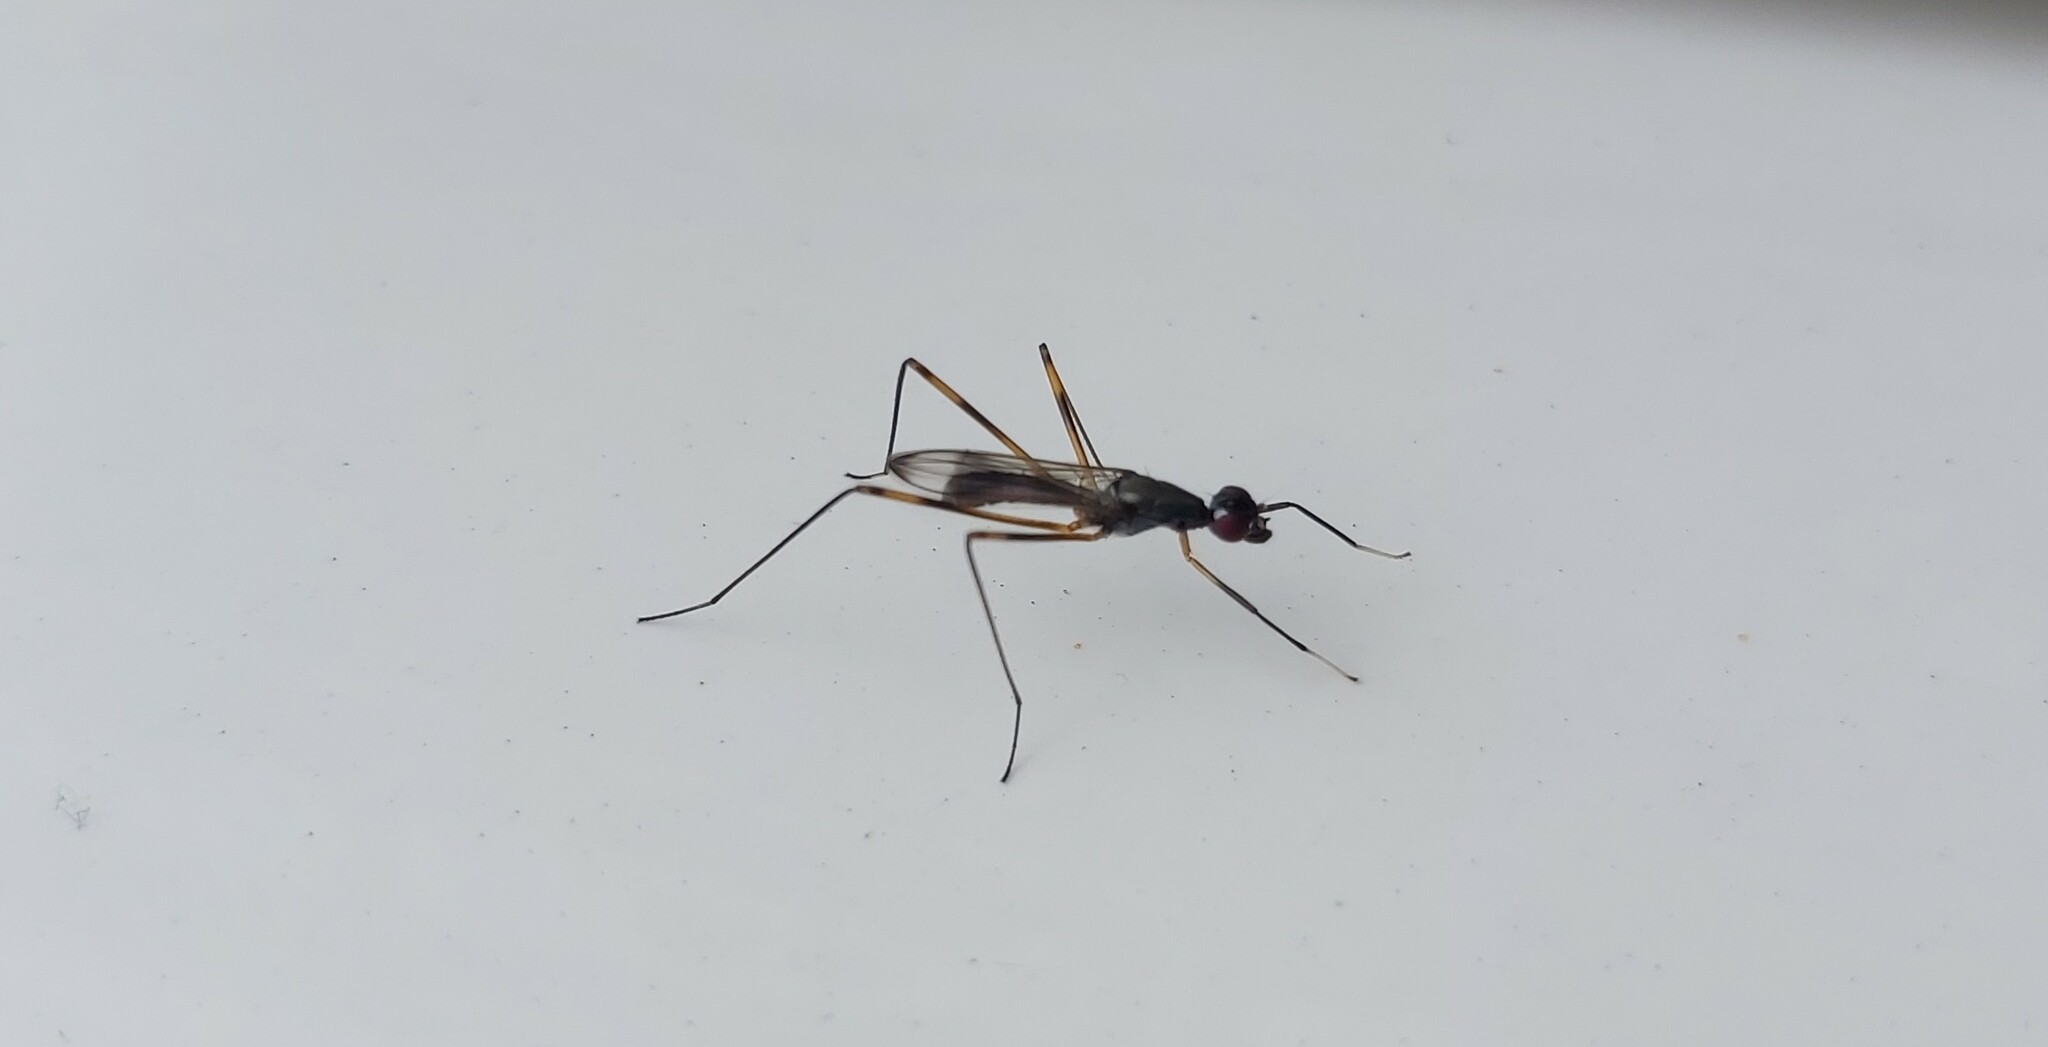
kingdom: Animalia
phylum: Arthropoda
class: Insecta
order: Diptera
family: Micropezidae
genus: Rainieria
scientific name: Rainieria antennaepes
